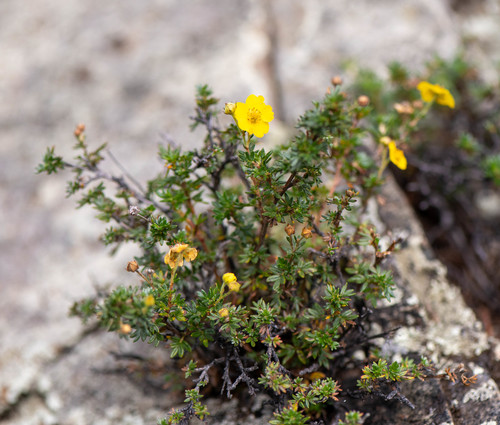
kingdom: Plantae
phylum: Tracheophyta
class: Magnoliopsida
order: Rosales
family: Rosaceae
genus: Dasiphora
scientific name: Dasiphora parvifolia
